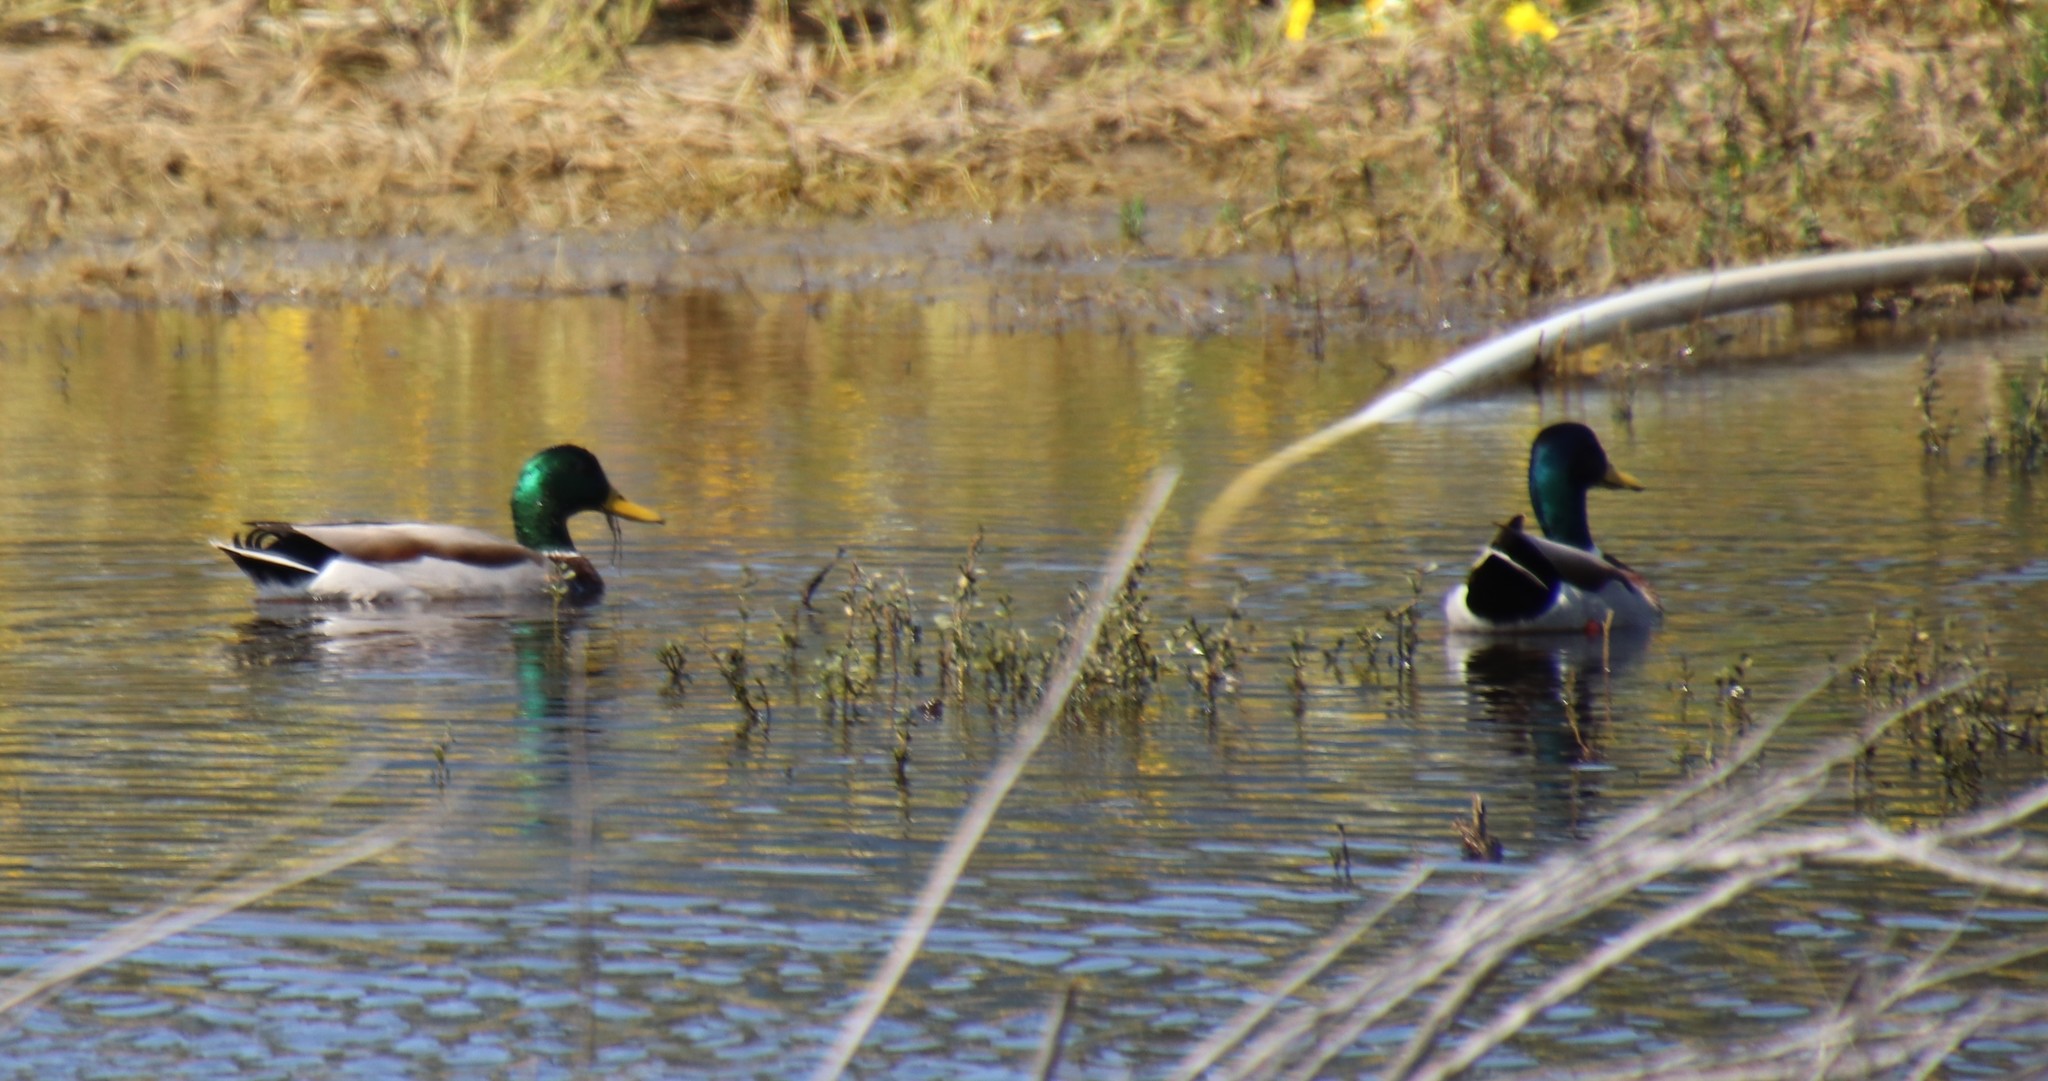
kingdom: Animalia
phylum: Chordata
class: Aves
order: Anseriformes
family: Anatidae
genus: Anas
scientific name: Anas platyrhynchos
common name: Mallard
